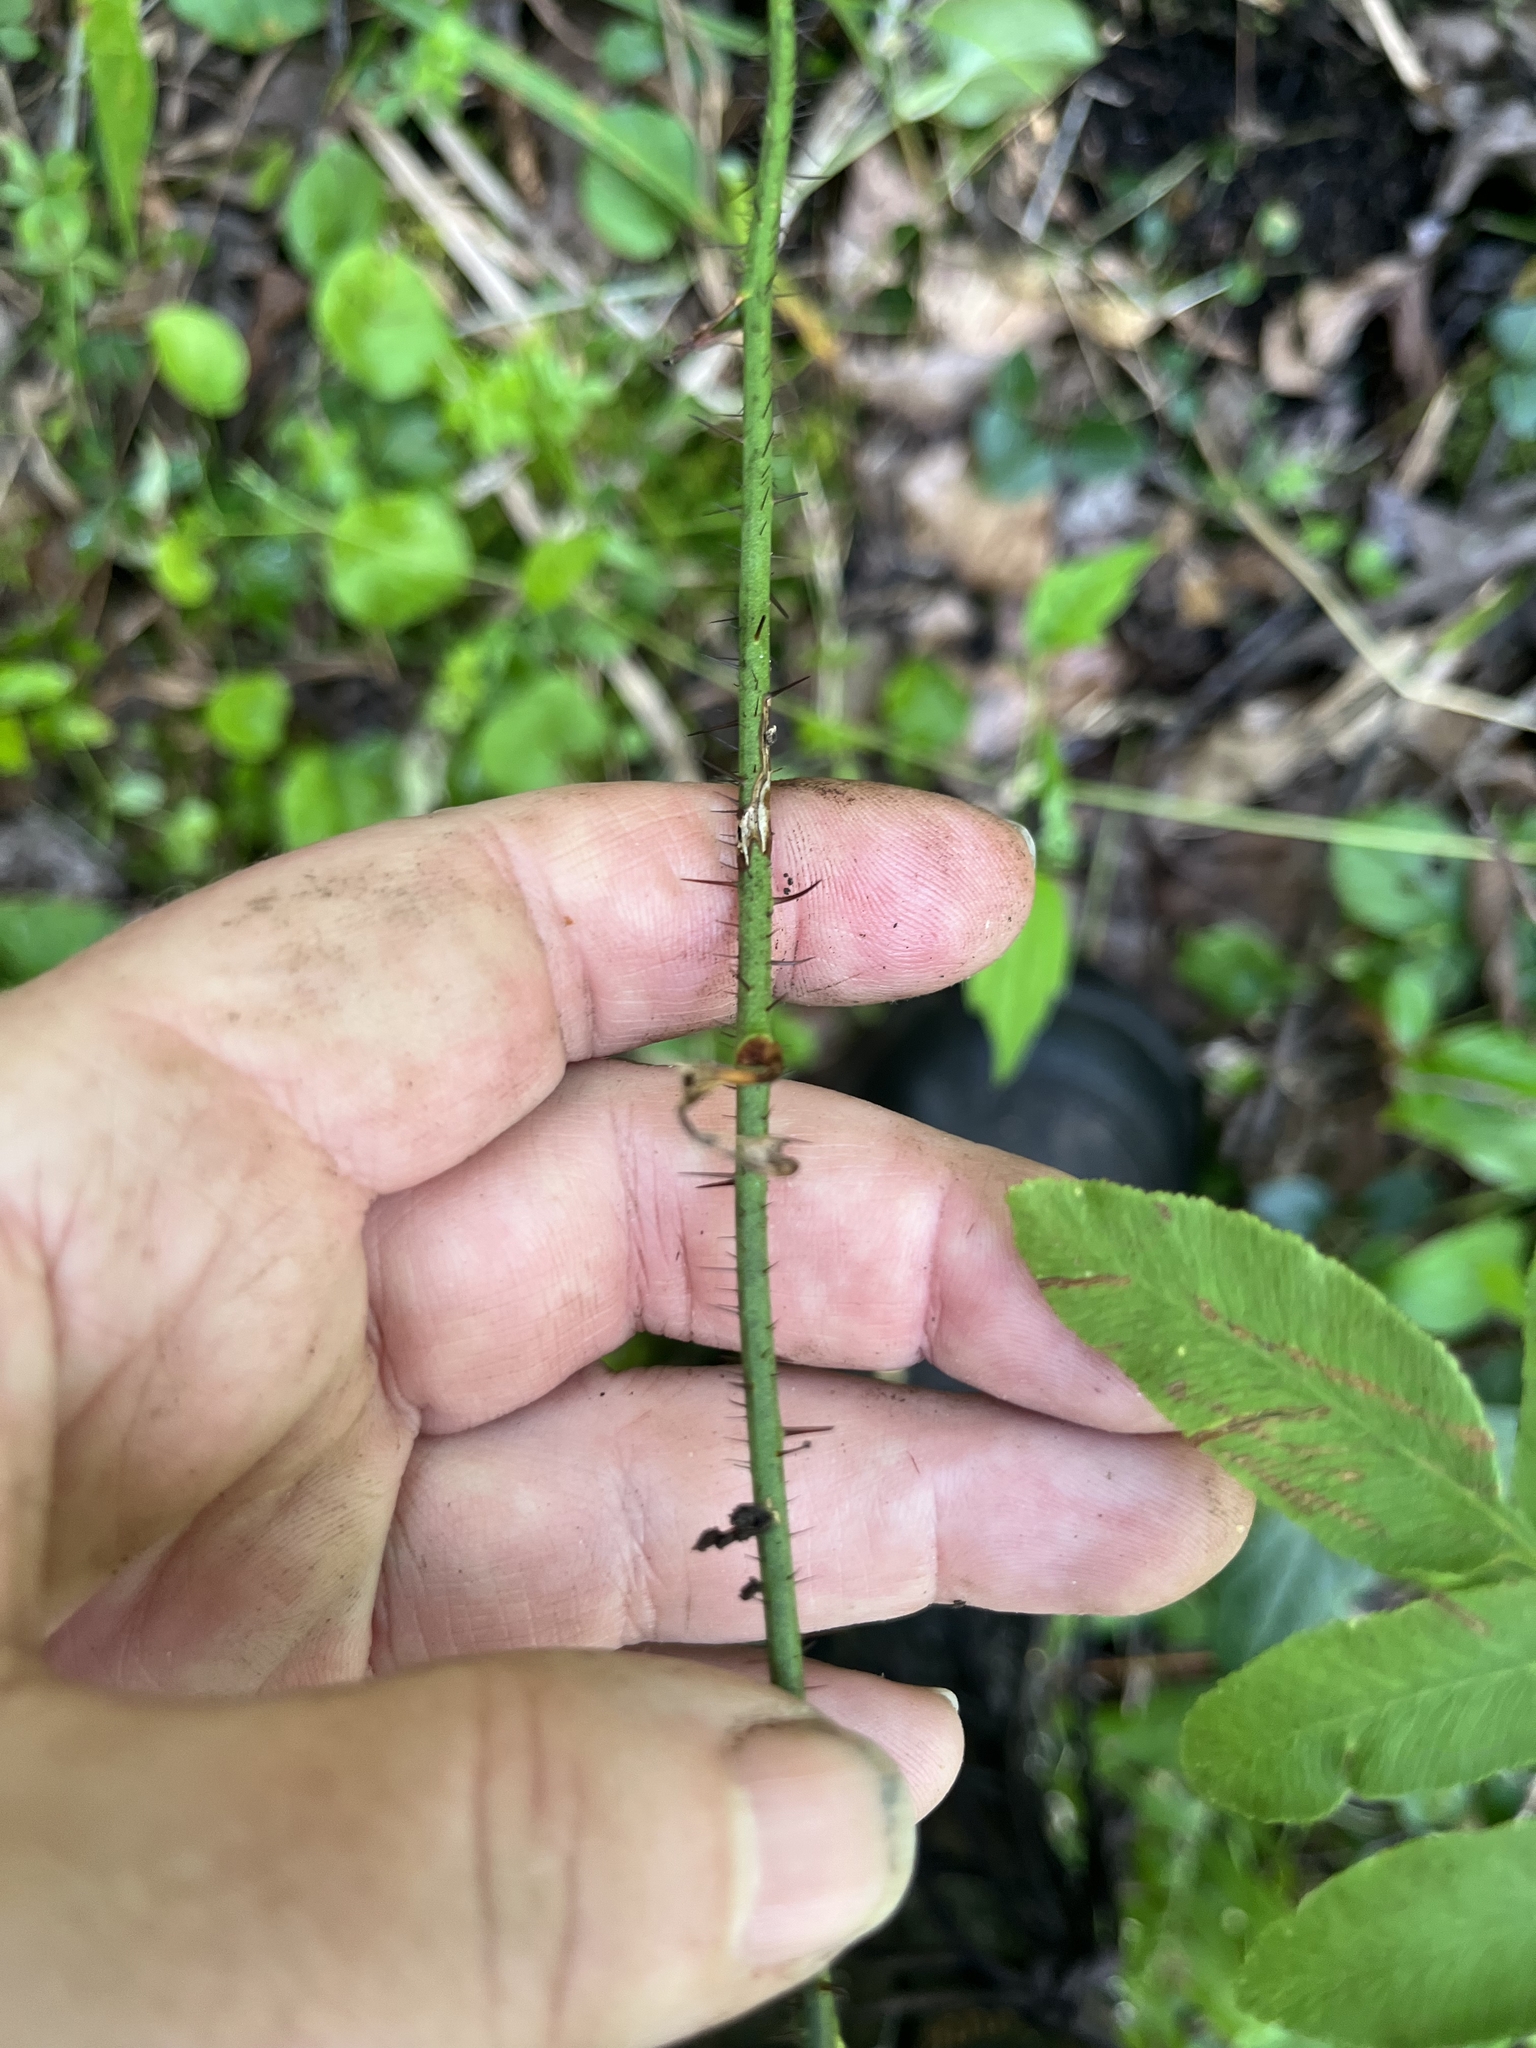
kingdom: Plantae
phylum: Tracheophyta
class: Liliopsida
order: Liliales
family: Smilacaceae
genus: Smilax
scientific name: Smilax tamnoides
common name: Hellfetter
